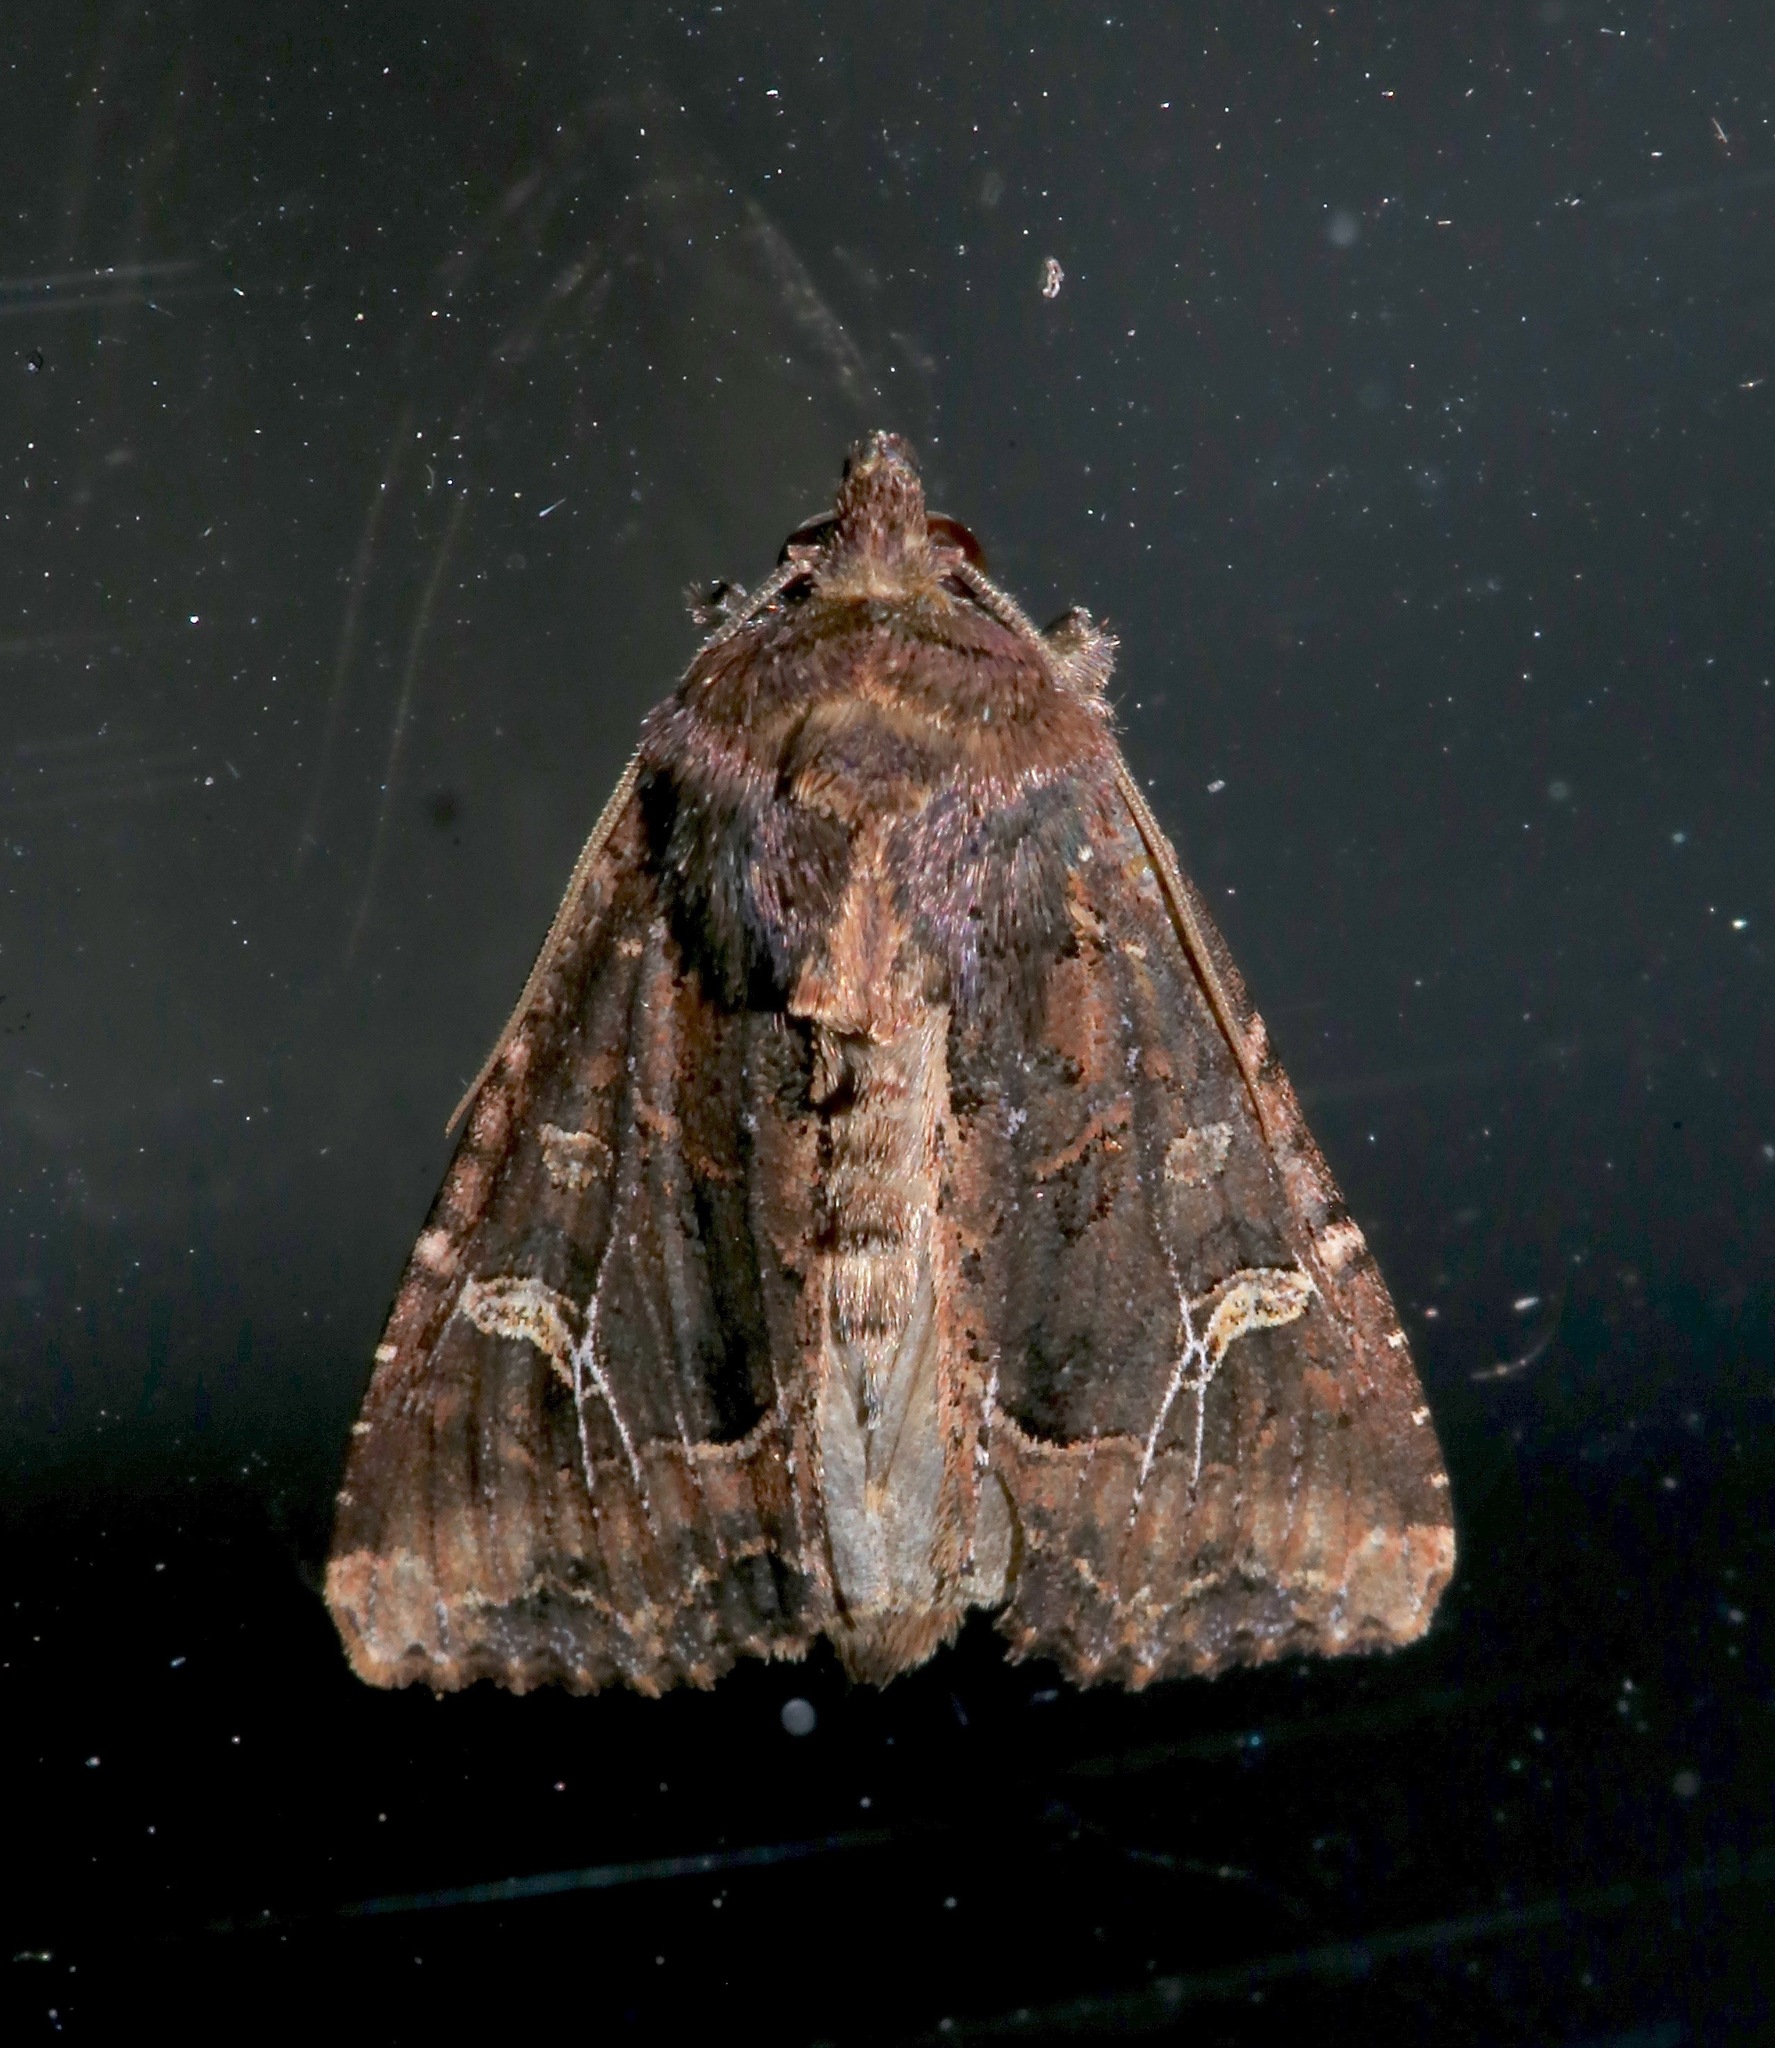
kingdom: Animalia
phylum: Arthropoda
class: Insecta
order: Lepidoptera
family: Noctuidae
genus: Helotropha
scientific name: Helotropha reniformis
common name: Kidney-spotted rustic moth
